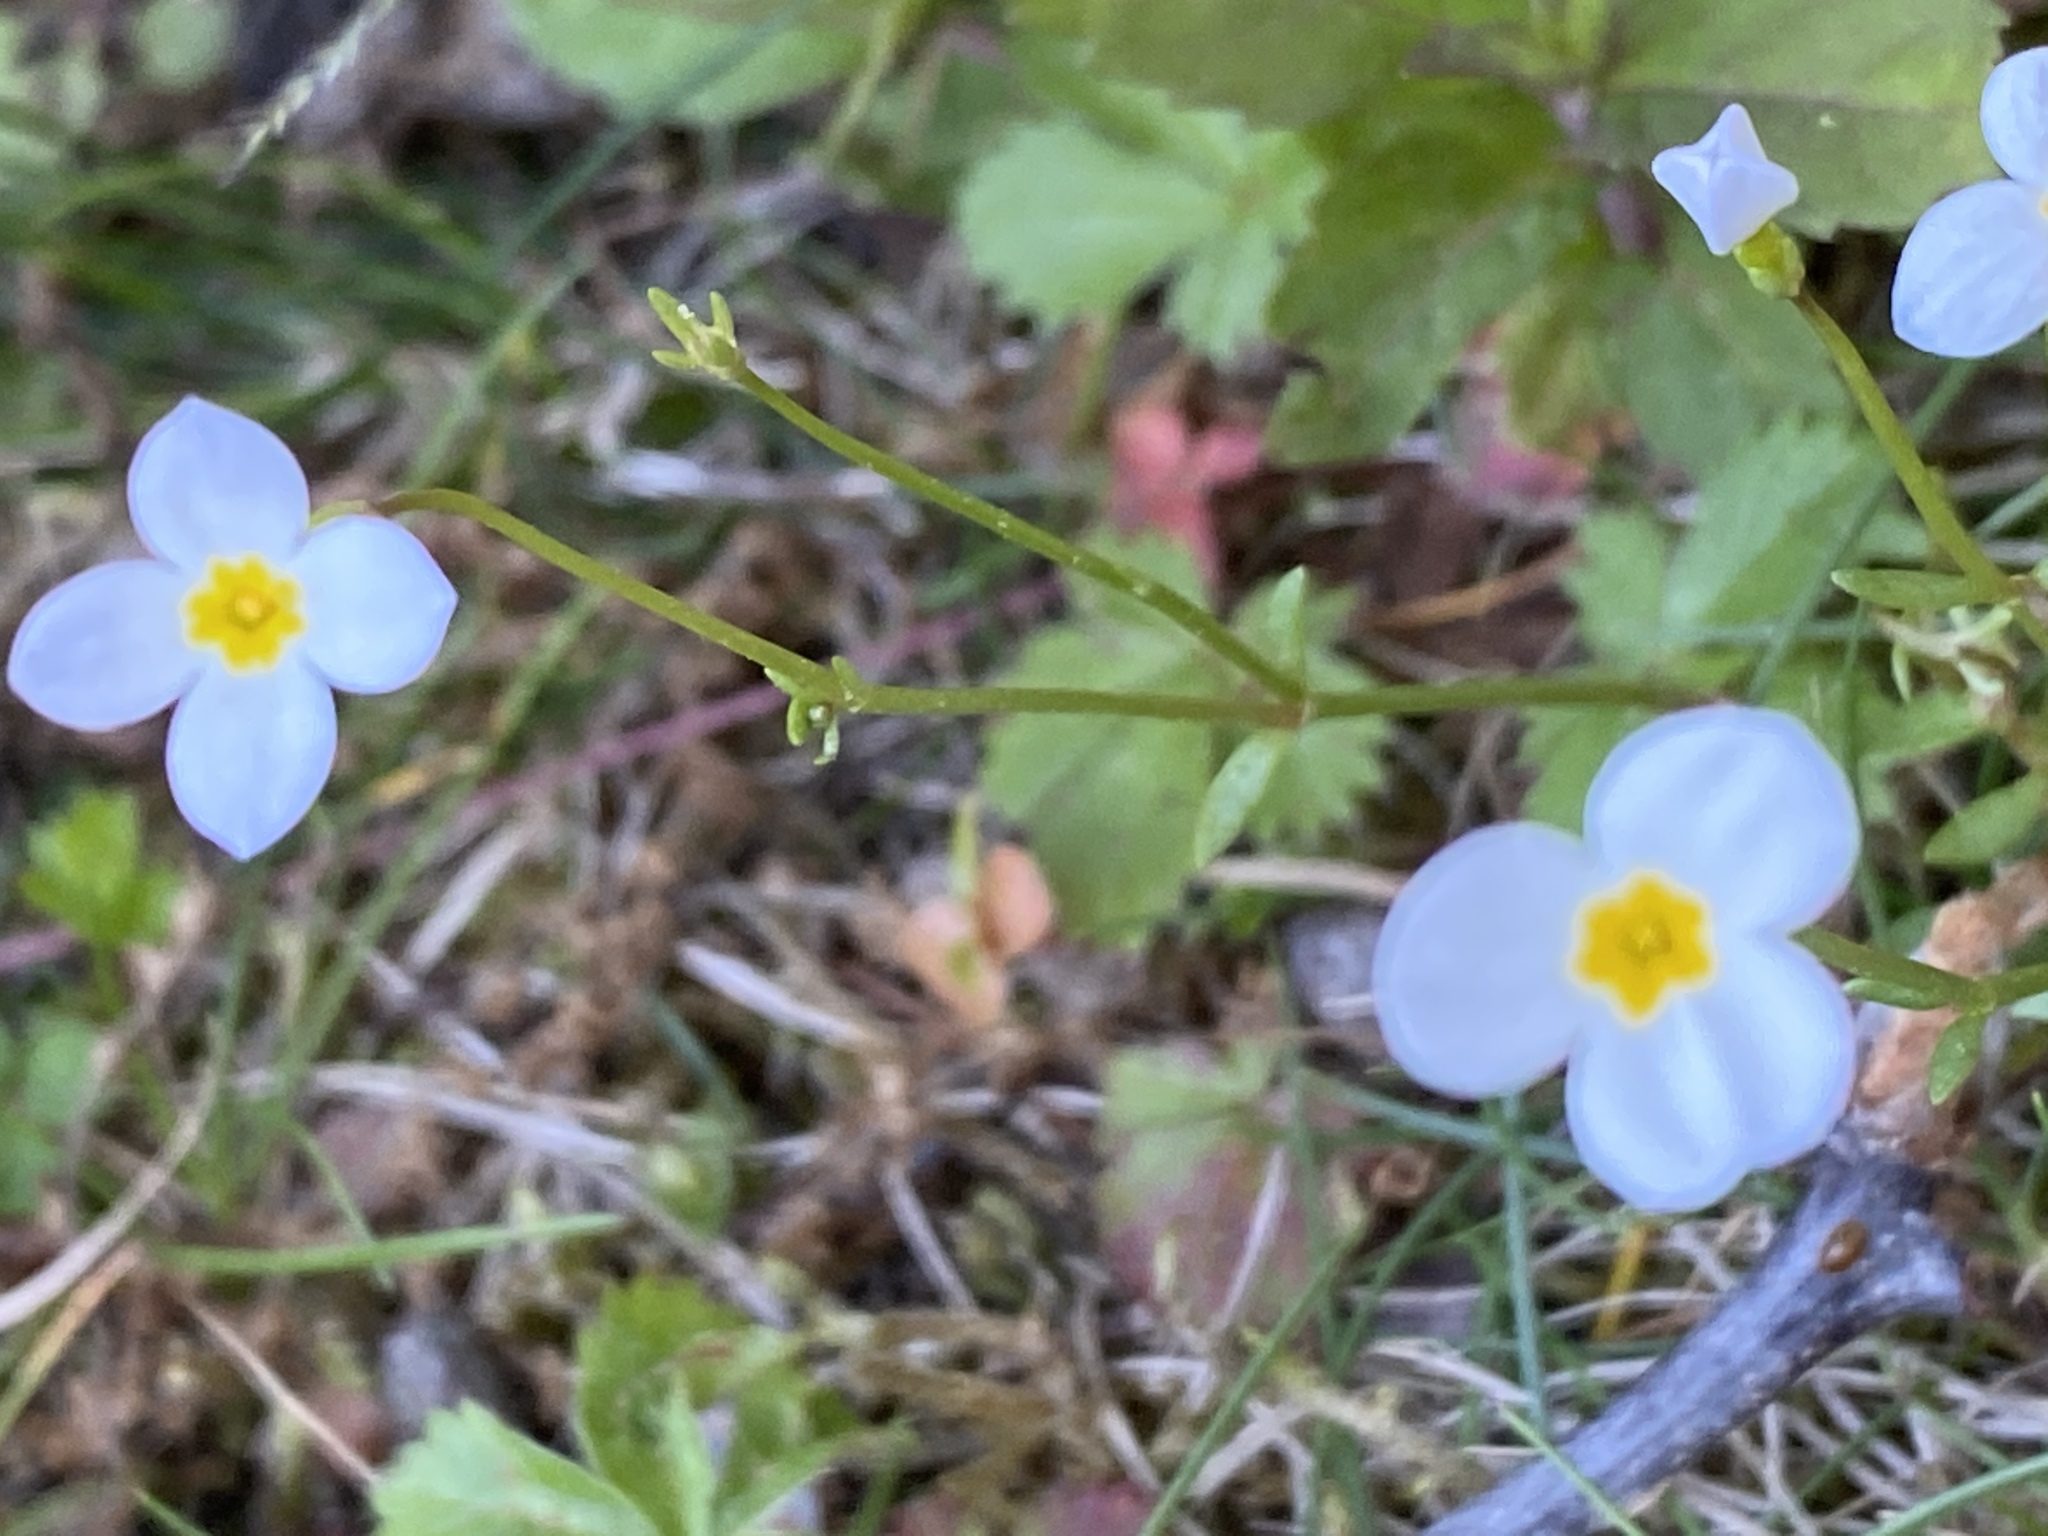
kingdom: Plantae
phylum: Tracheophyta
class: Magnoliopsida
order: Gentianales
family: Rubiaceae
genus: Houstonia
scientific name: Houstonia caerulea
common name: Bluets
